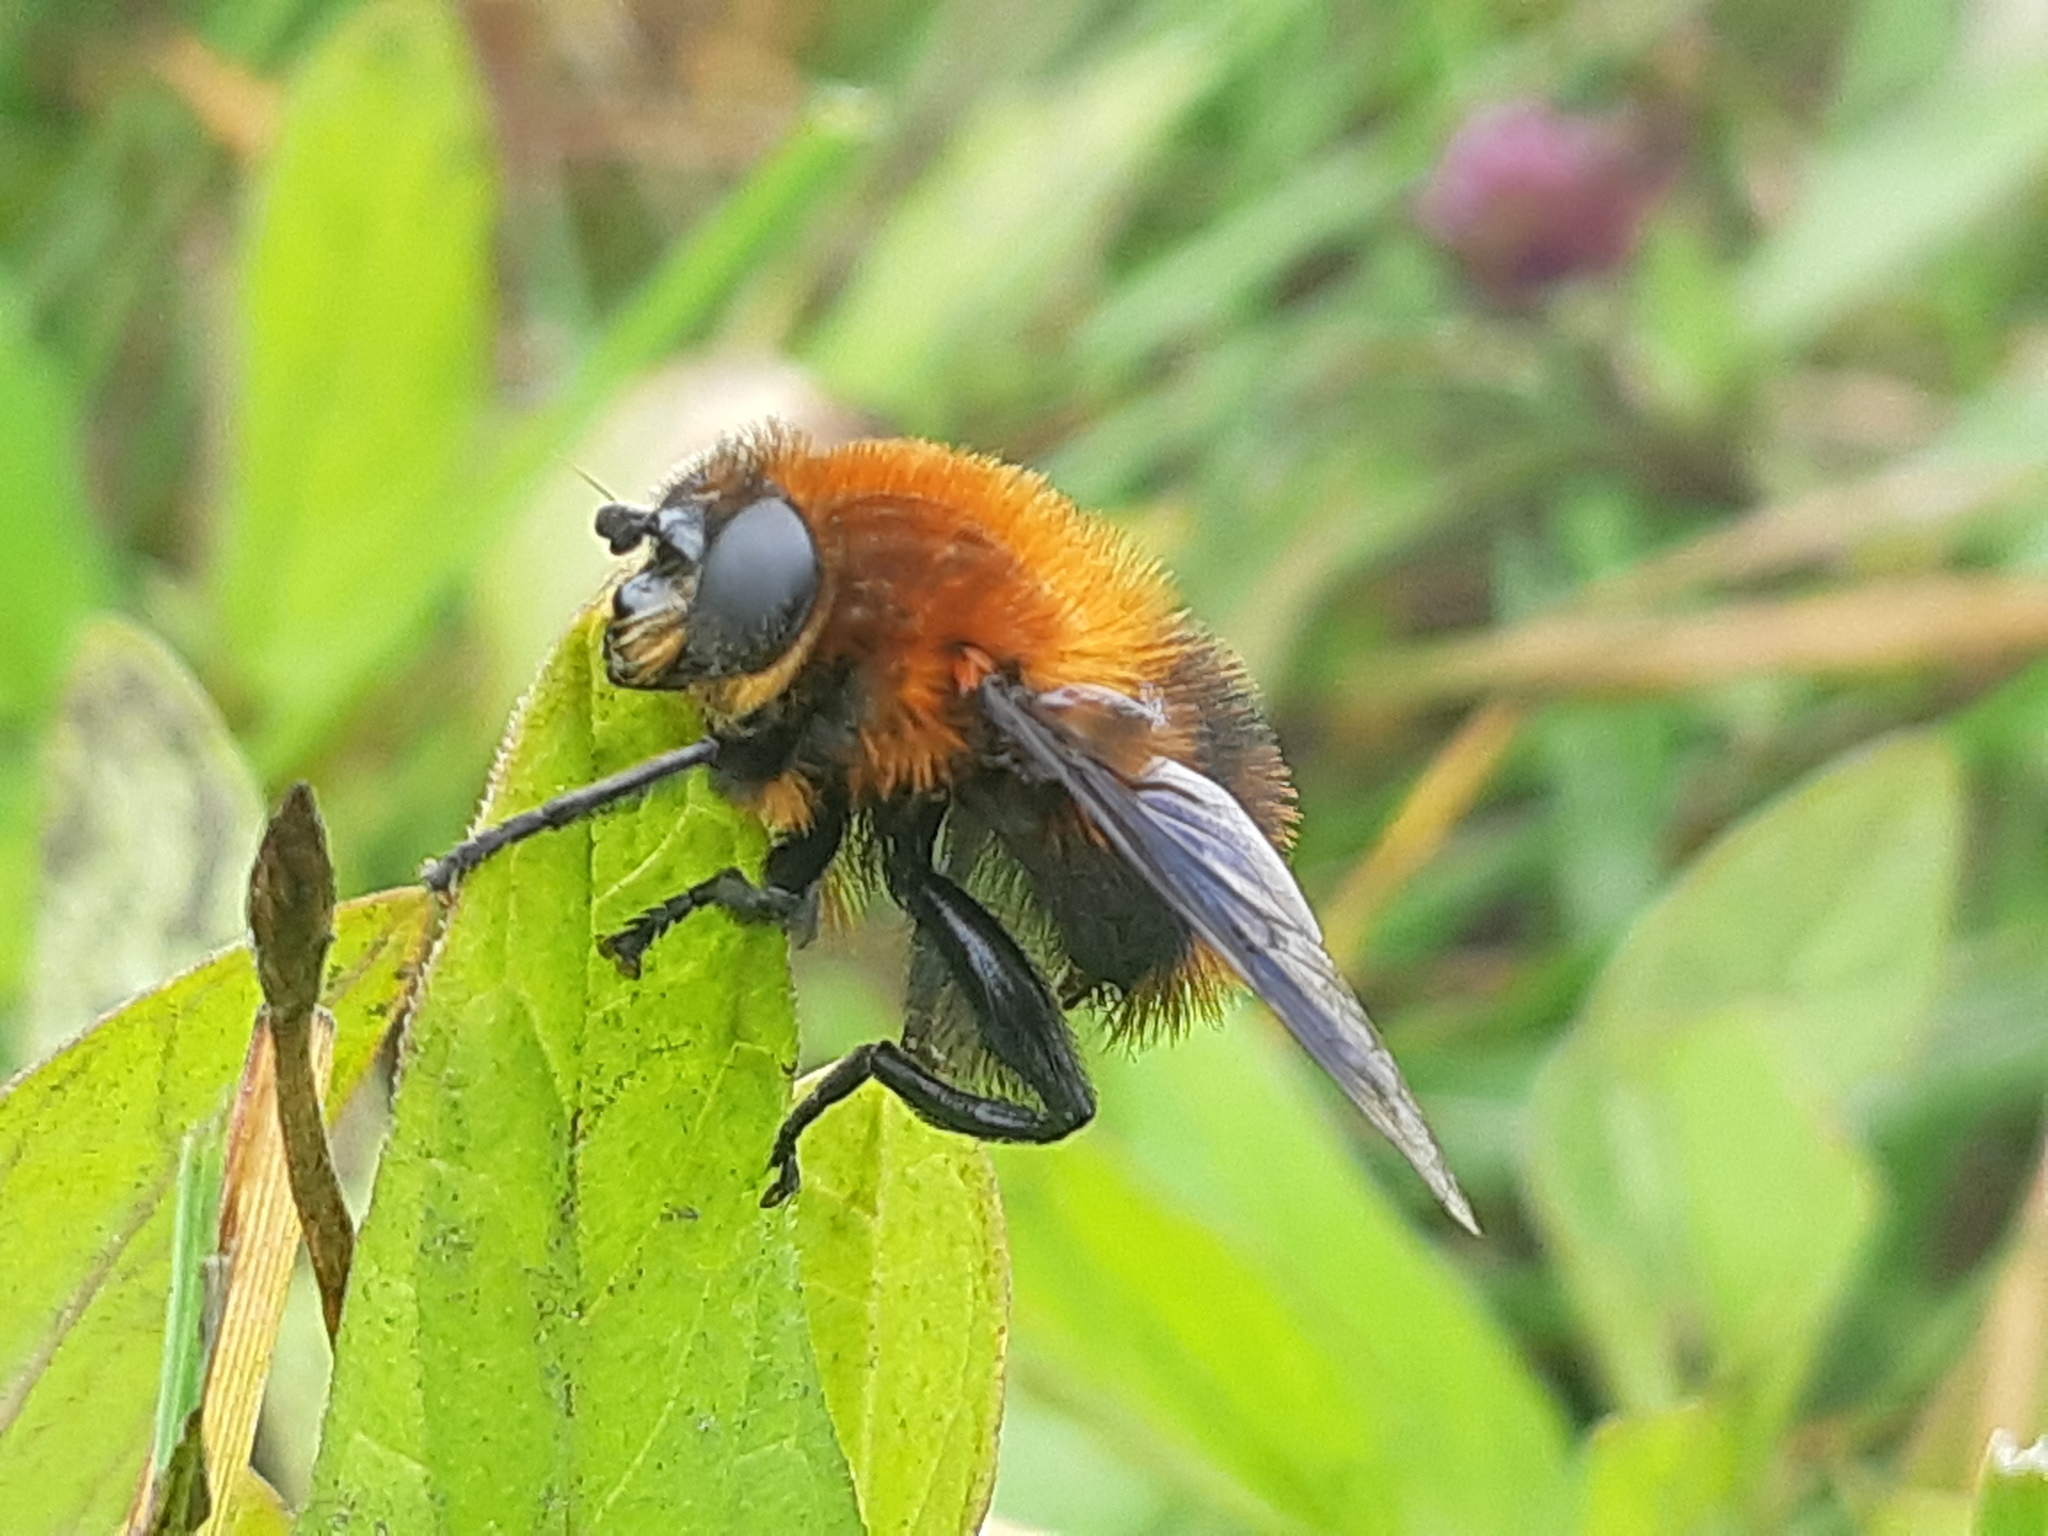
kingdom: Animalia
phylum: Arthropoda
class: Insecta
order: Diptera
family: Syrphidae
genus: Imatisma
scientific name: Imatisma rubicunda
